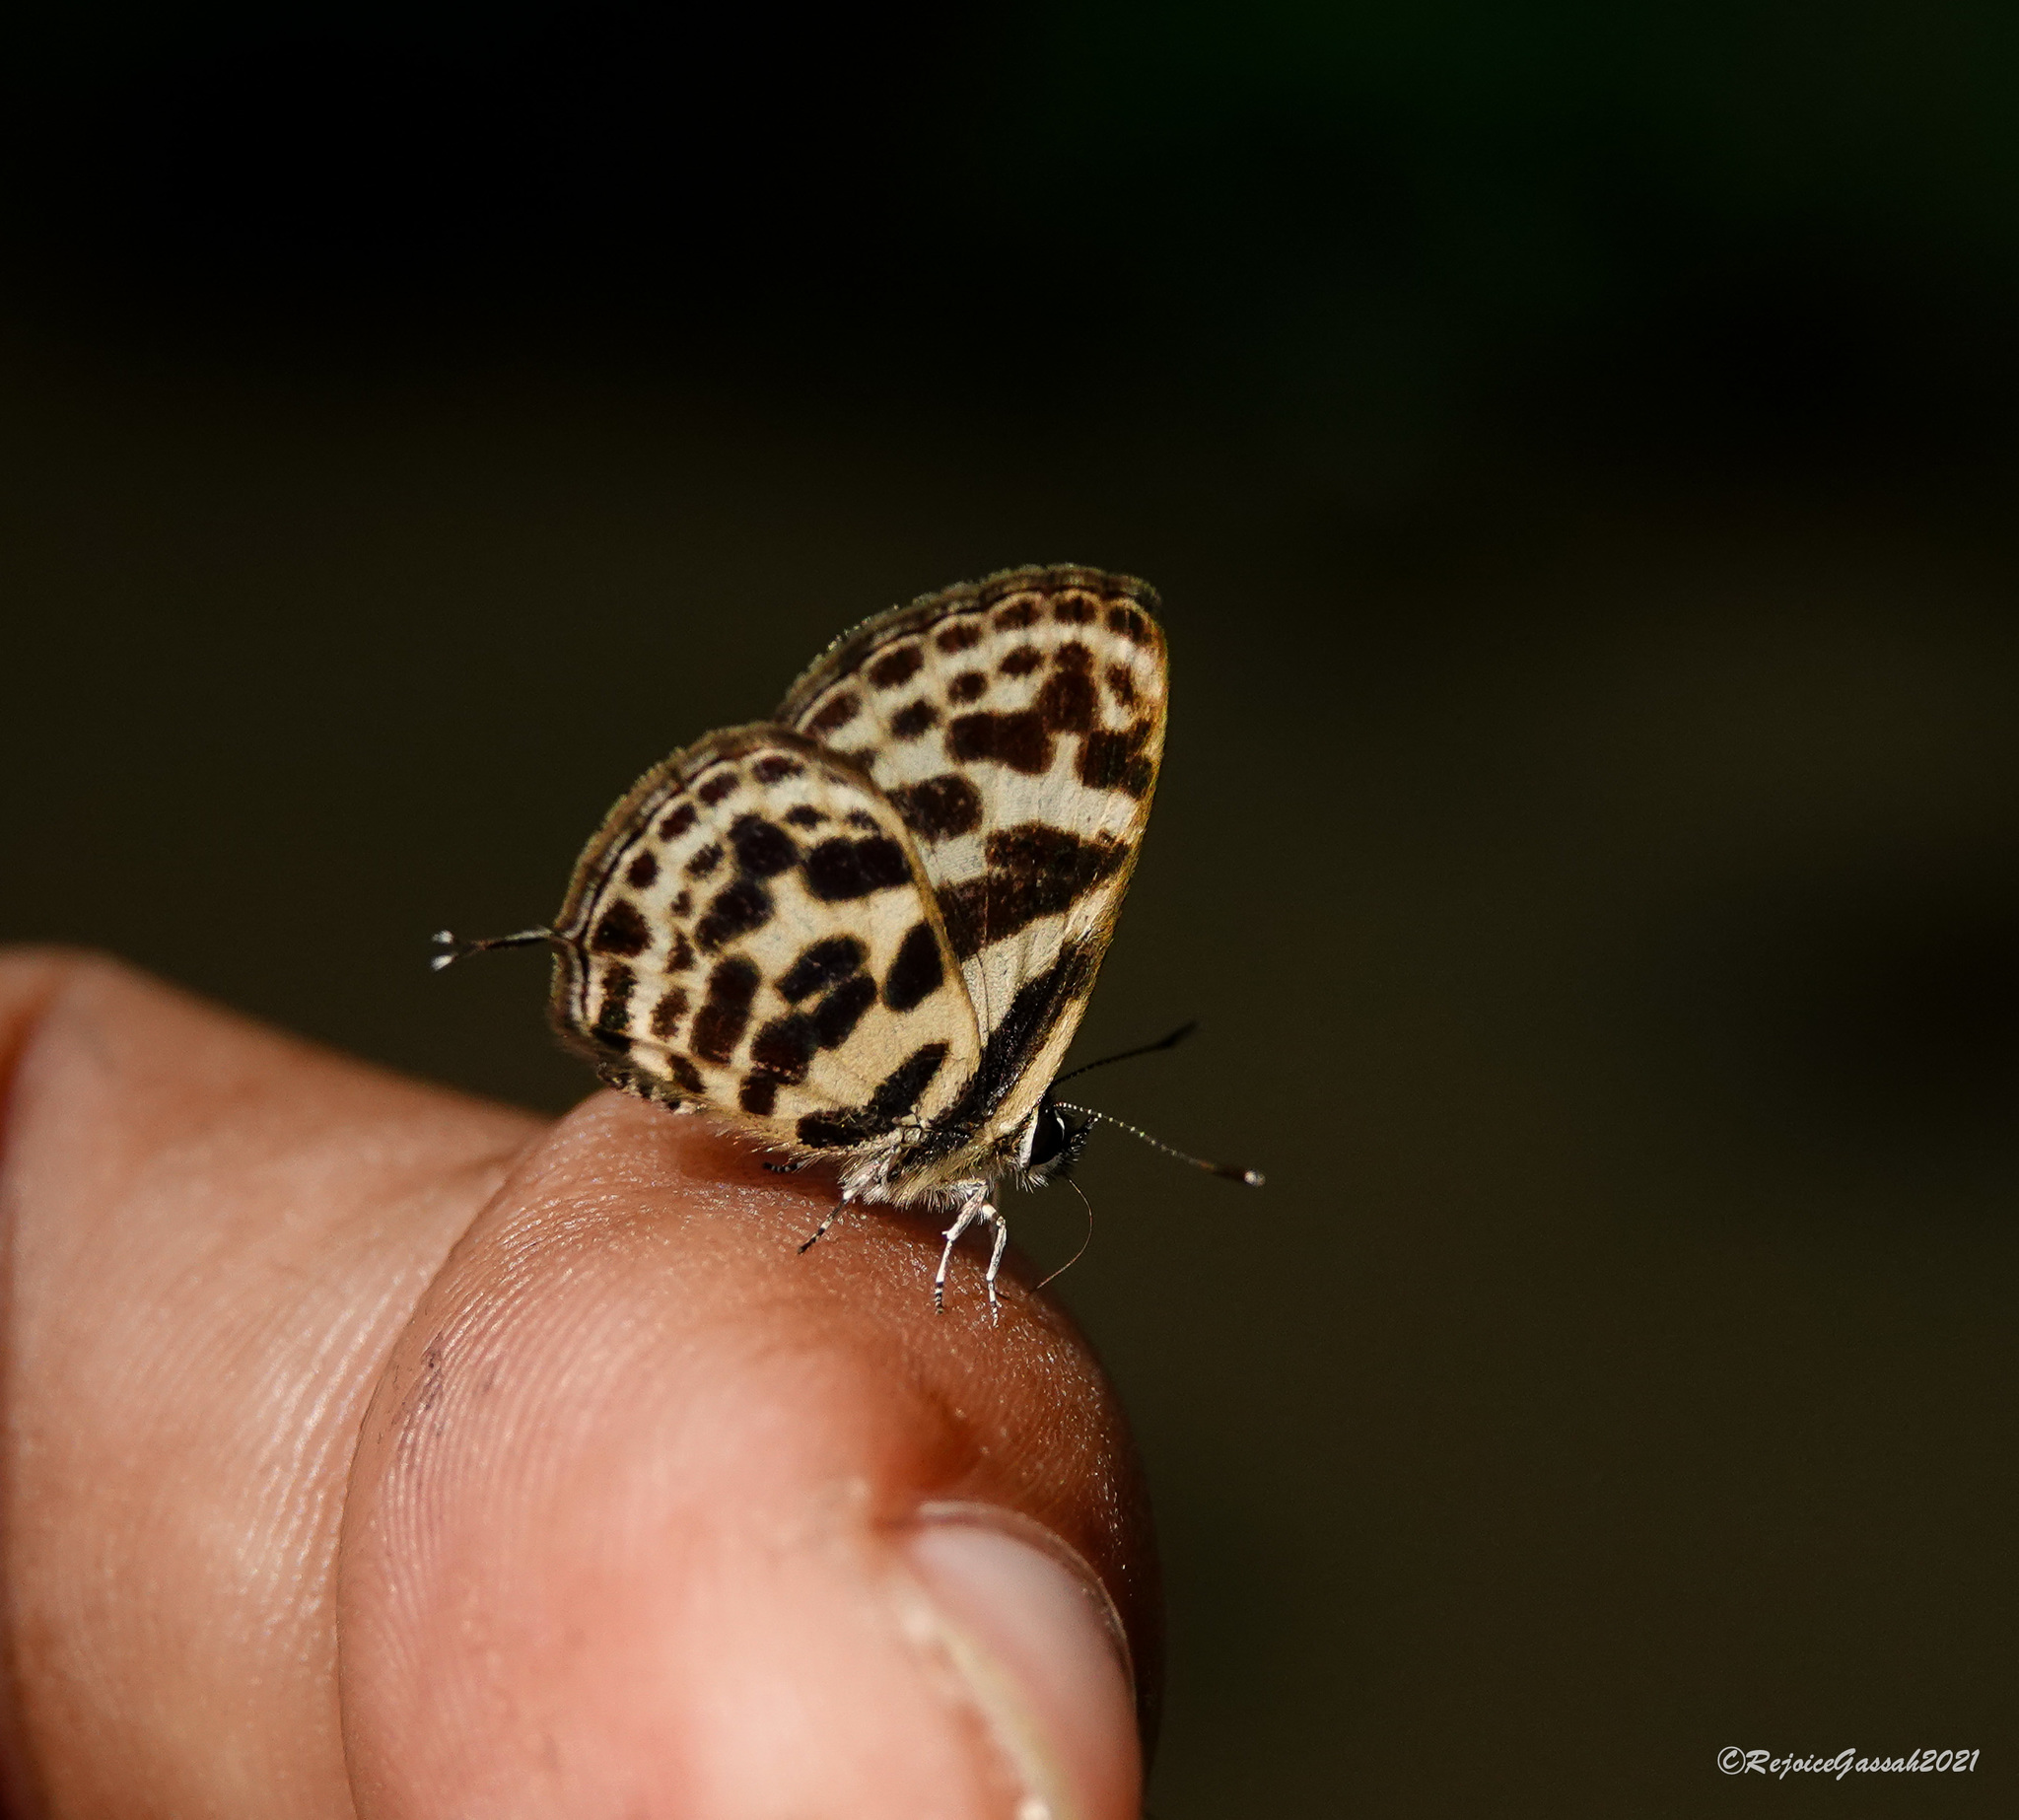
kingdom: Animalia
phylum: Arthropoda
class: Insecta
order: Lepidoptera
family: Lycaenidae
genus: Tarucus
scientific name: Tarucus
